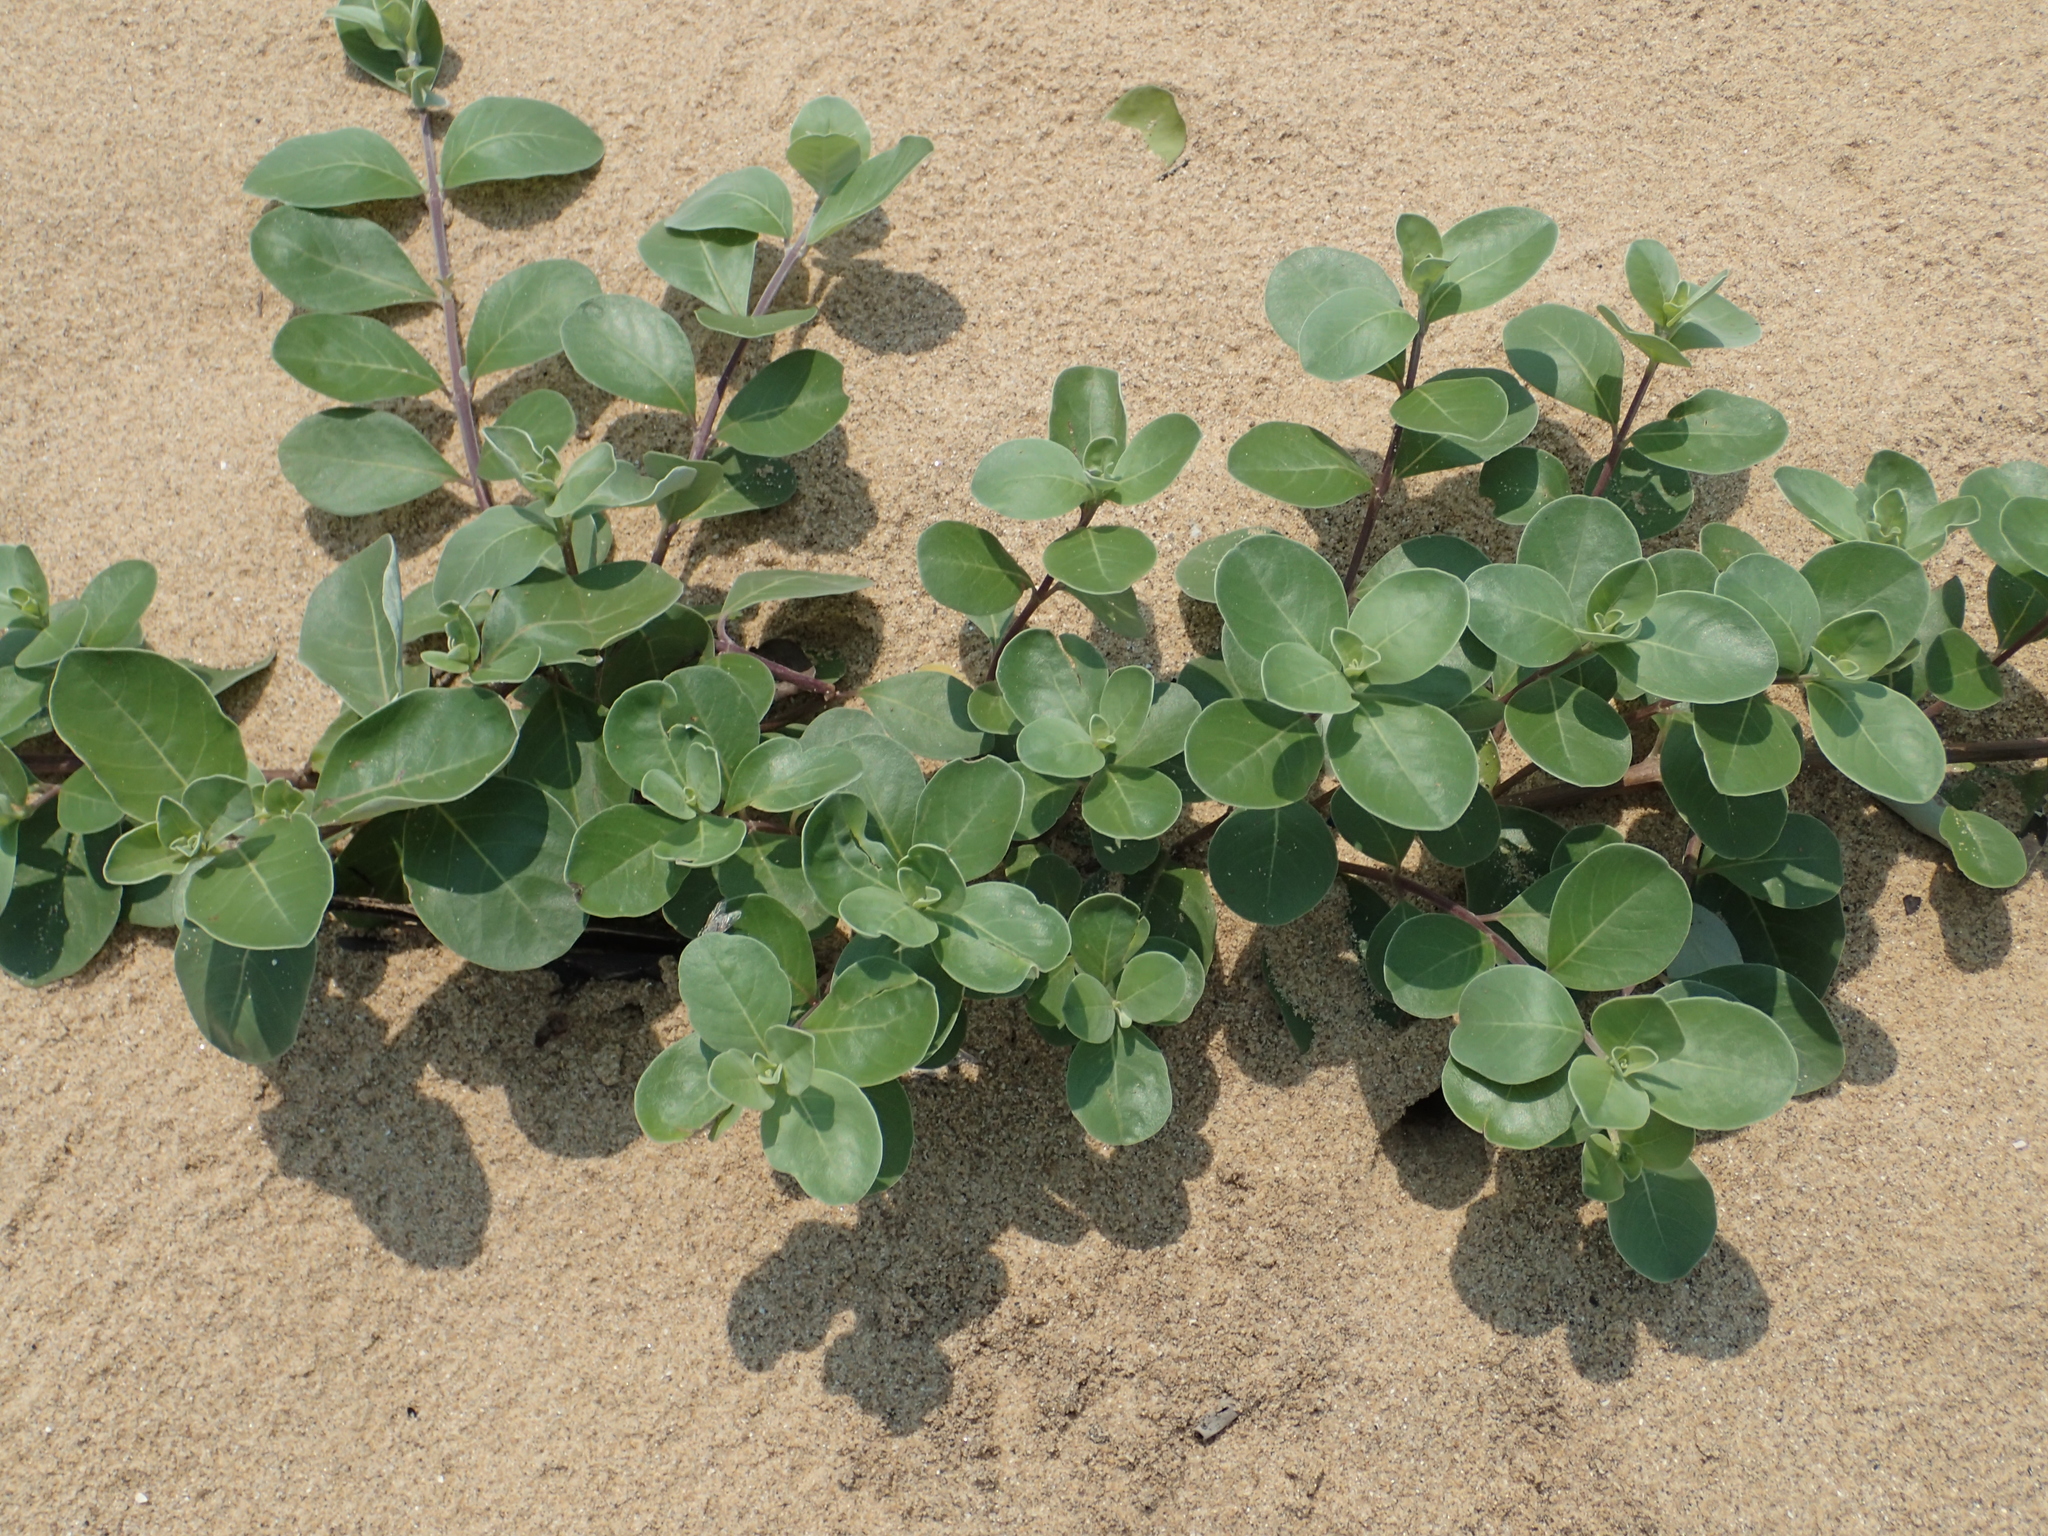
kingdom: Plantae
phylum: Tracheophyta
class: Magnoliopsida
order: Lamiales
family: Lamiaceae
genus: Vitex
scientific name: Vitex rotundifolia
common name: Beach vitex
